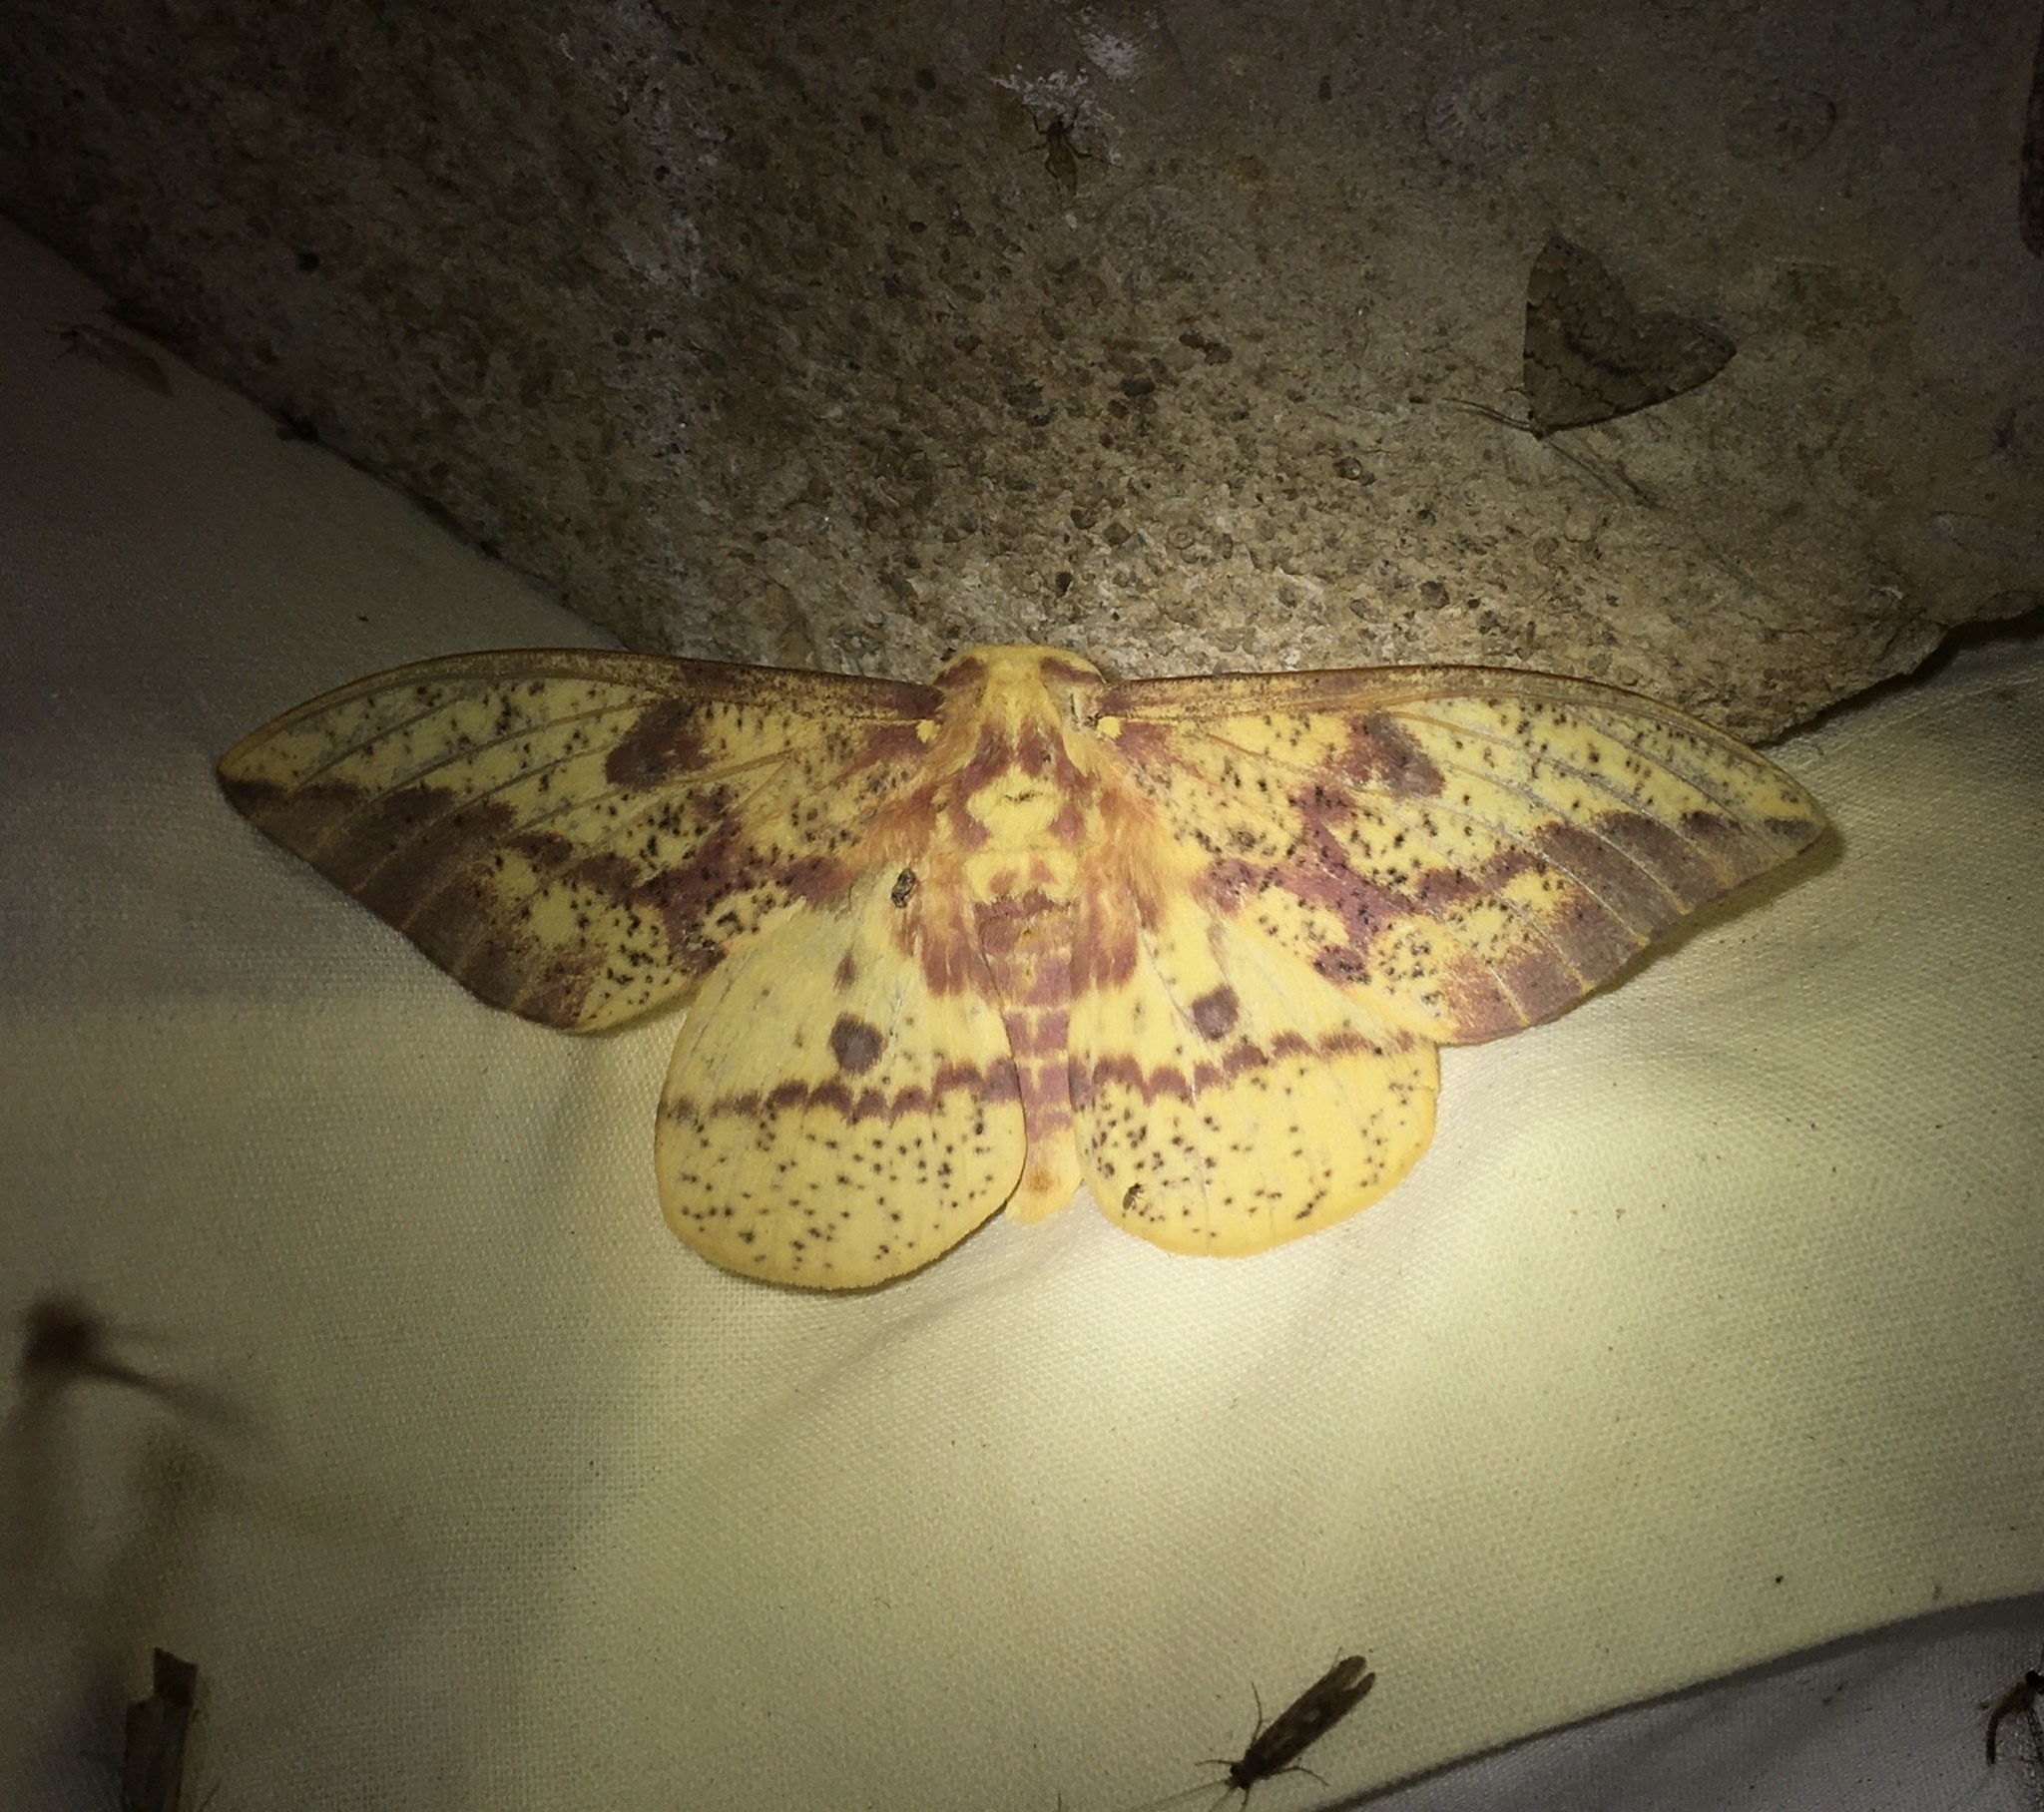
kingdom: Animalia
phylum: Arthropoda
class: Insecta
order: Lepidoptera
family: Saturniidae
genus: Eacles
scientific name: Eacles
